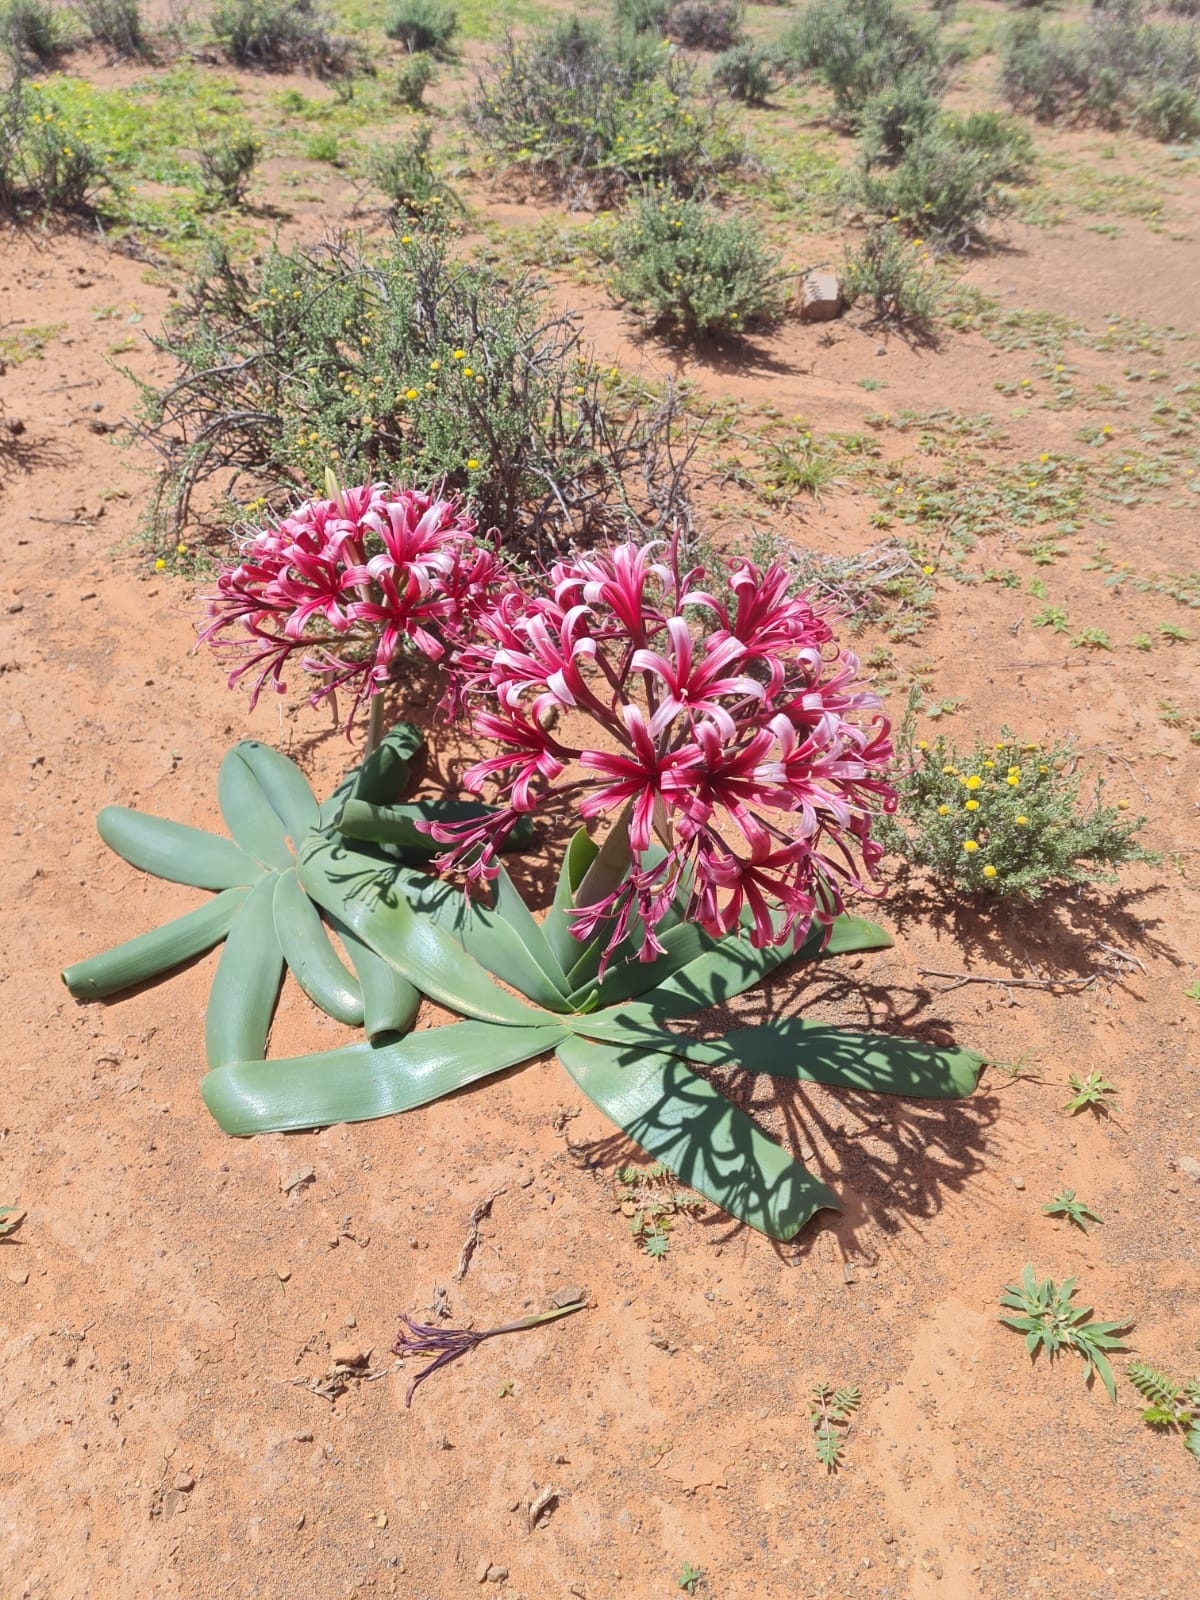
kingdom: Plantae
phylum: Tracheophyta
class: Liliopsida
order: Asparagales
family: Amaryllidaceae
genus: Ammocharis
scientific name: Ammocharis coranica
